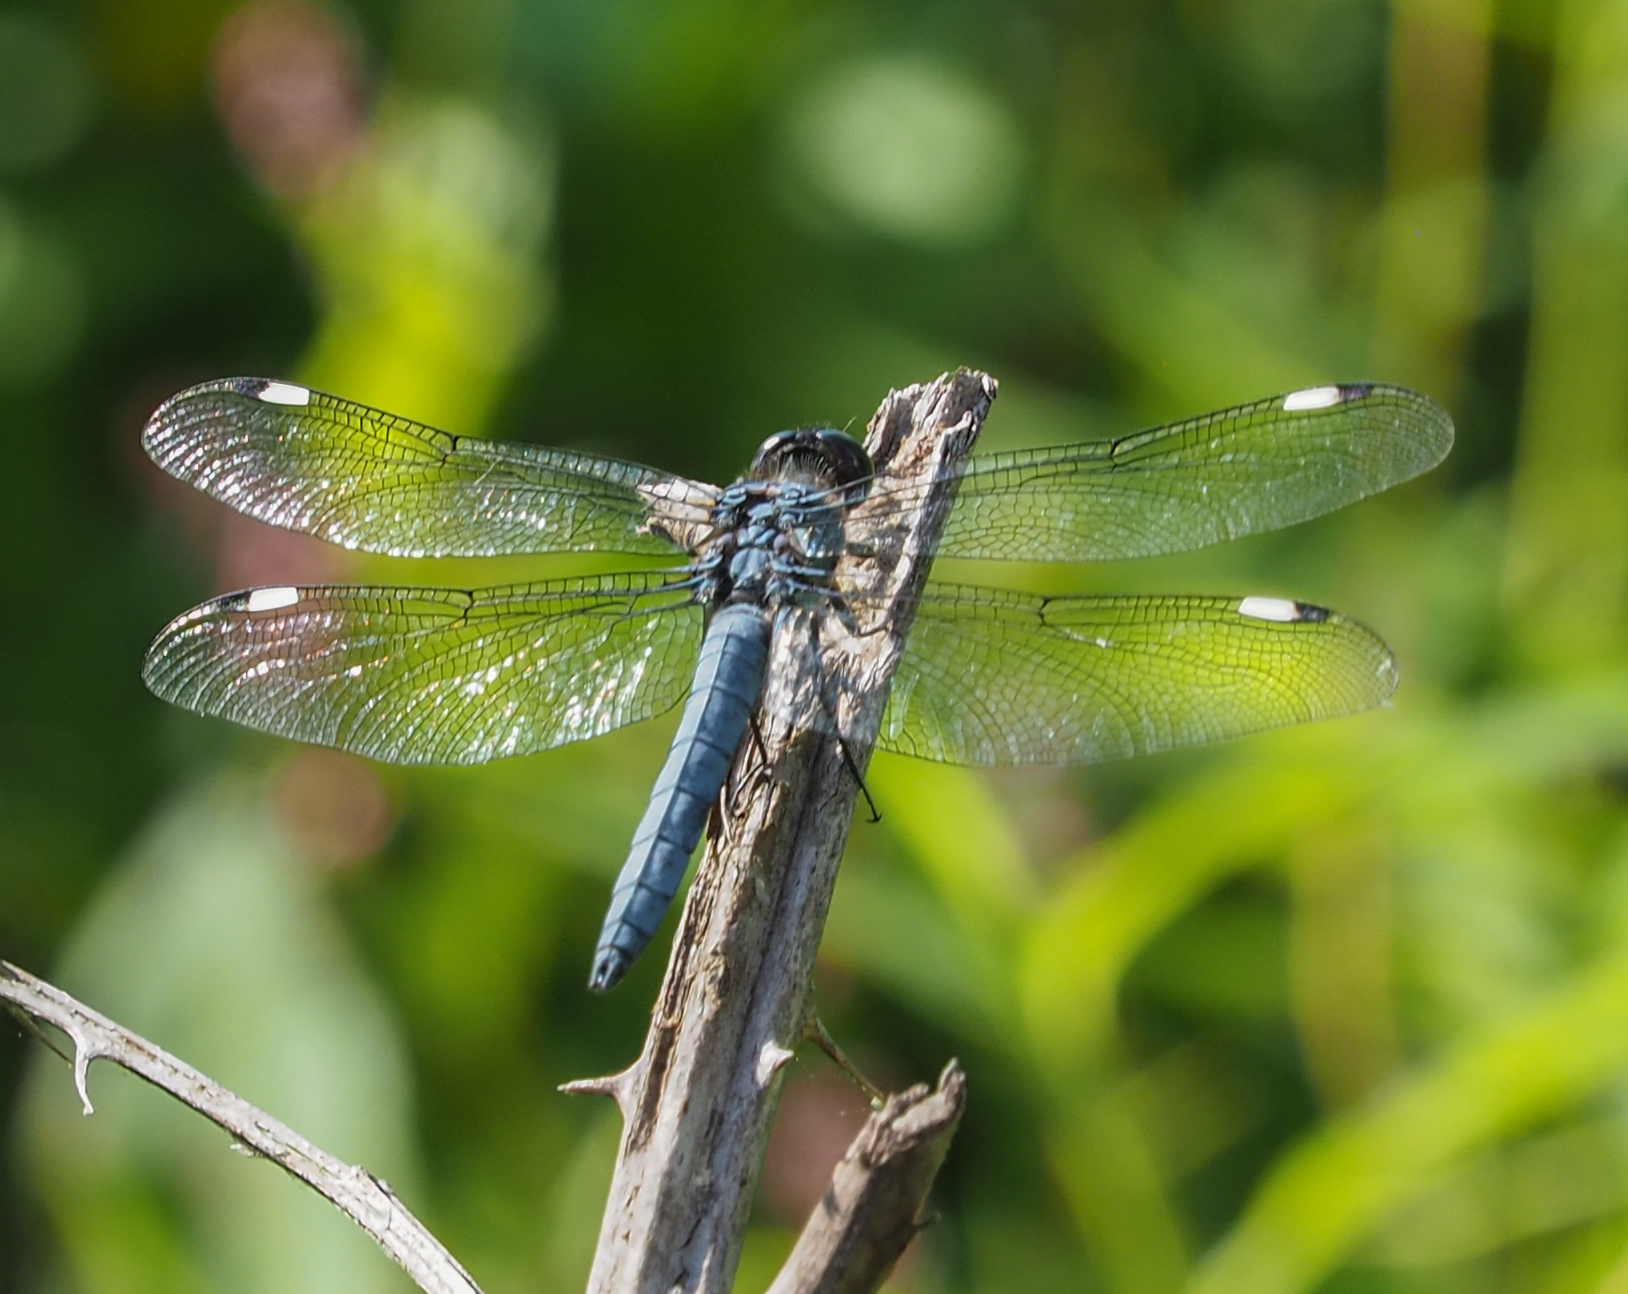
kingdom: Animalia
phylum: Arthropoda
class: Insecta
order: Odonata
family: Libellulidae
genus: Libellula
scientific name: Libellula cyanea
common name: Spangled skimmer
